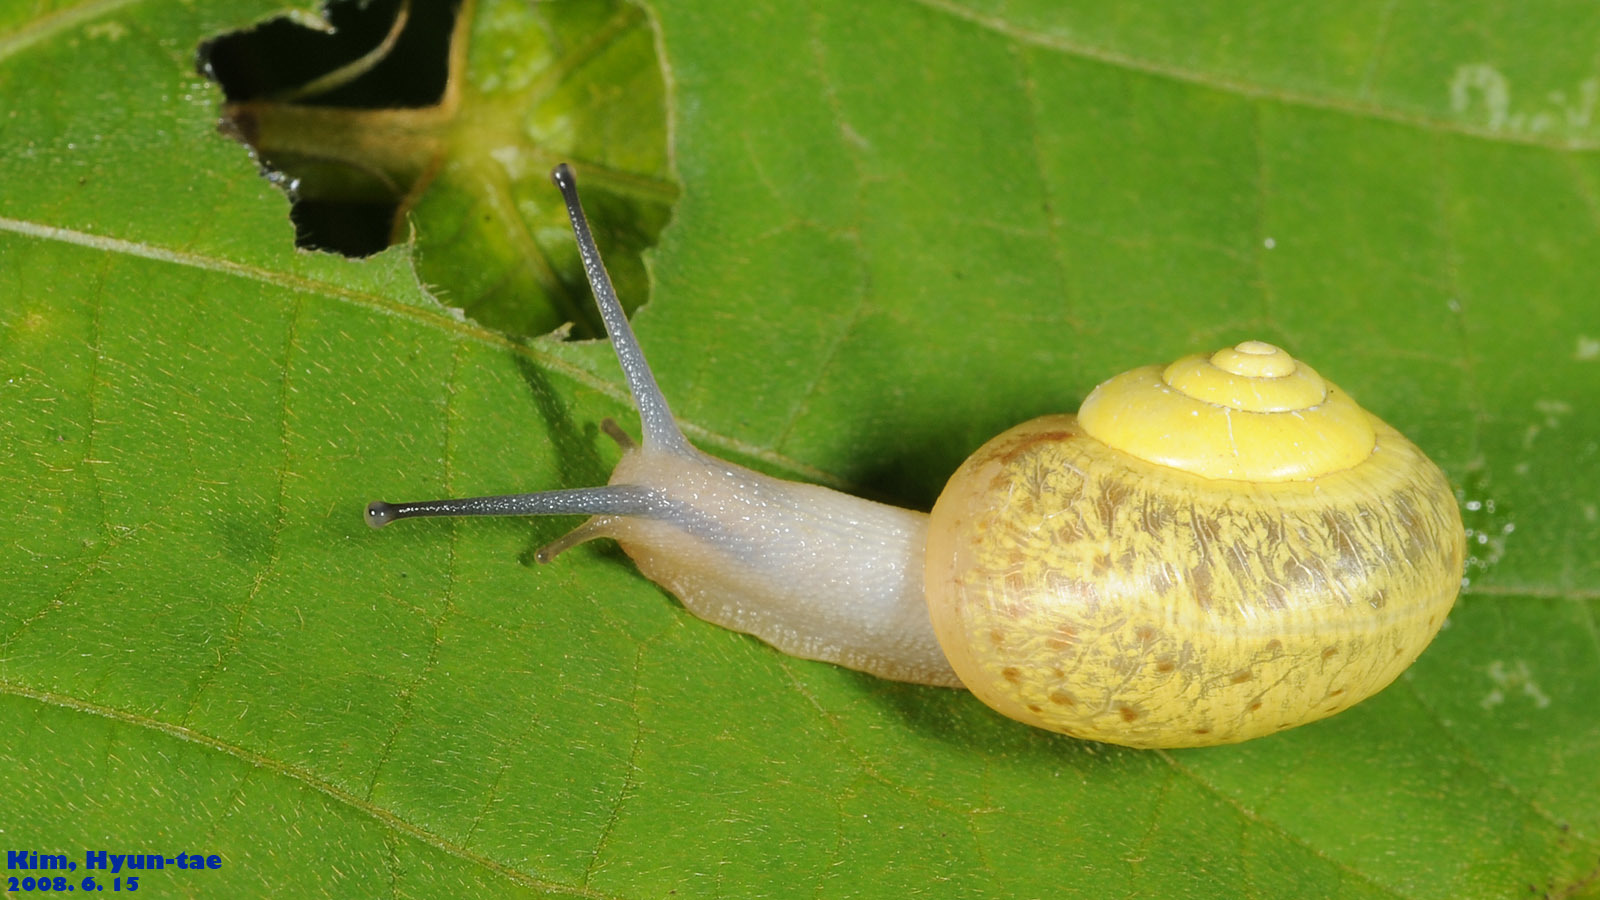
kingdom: Animalia
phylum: Mollusca
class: Gastropoda
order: Stylommatophora
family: Camaenidae
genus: Chosenelix
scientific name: Chosenelix problematica
